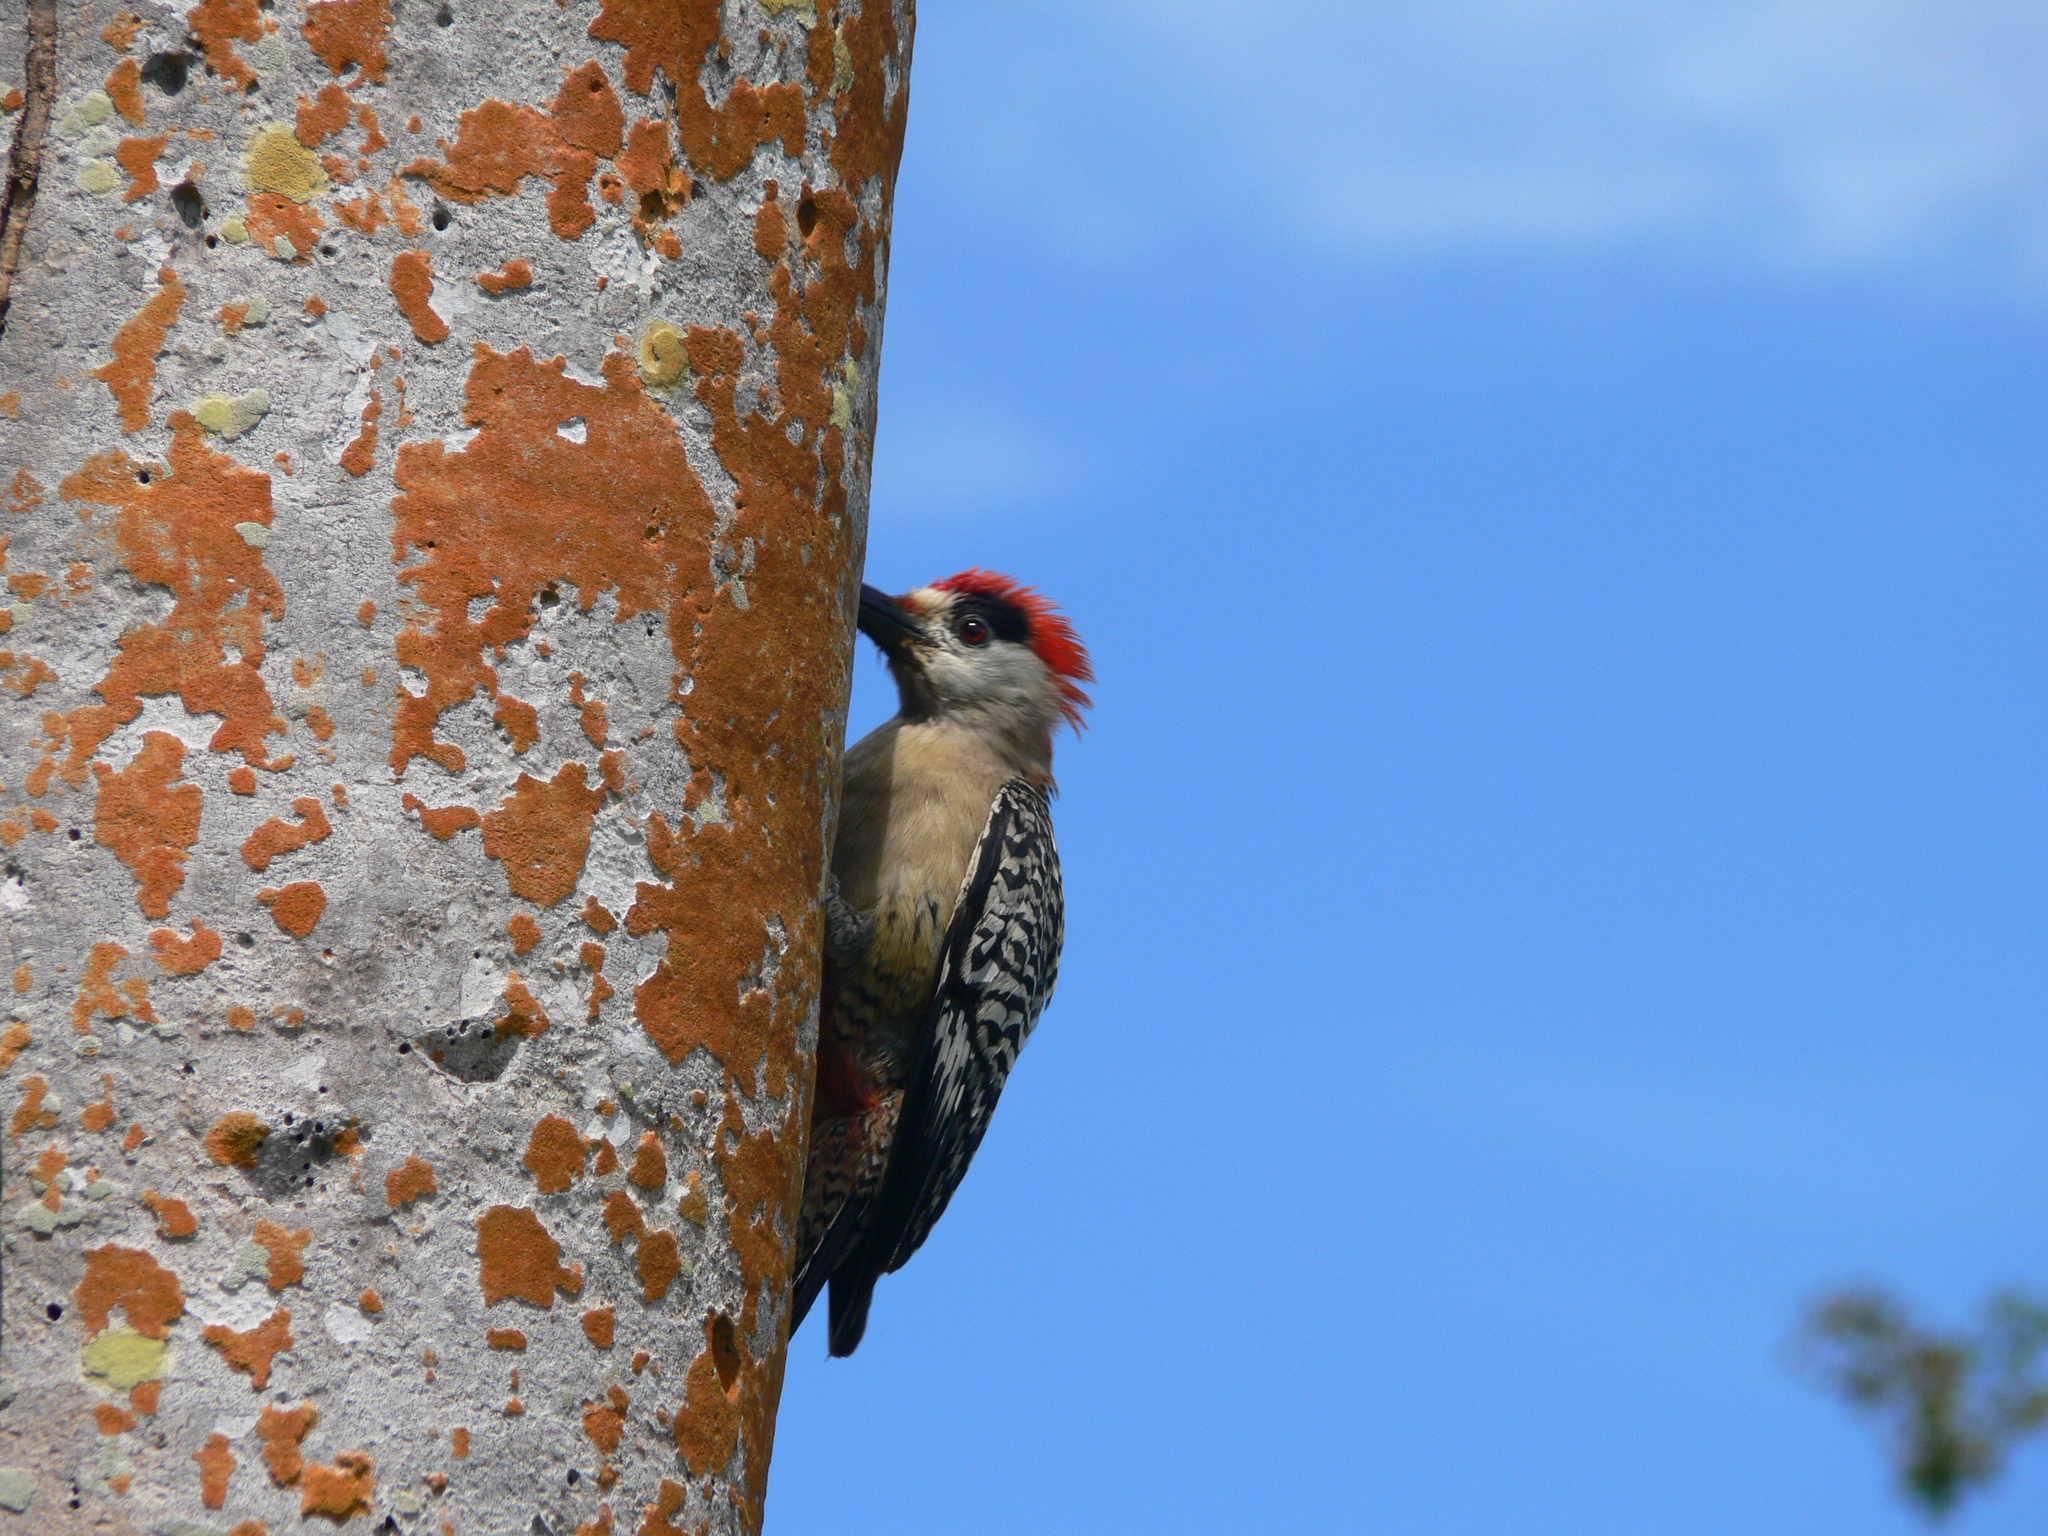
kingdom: Animalia
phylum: Chordata
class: Aves
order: Piciformes
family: Picidae
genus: Melanerpes
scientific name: Melanerpes superciliaris
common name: West indian woodpecker
